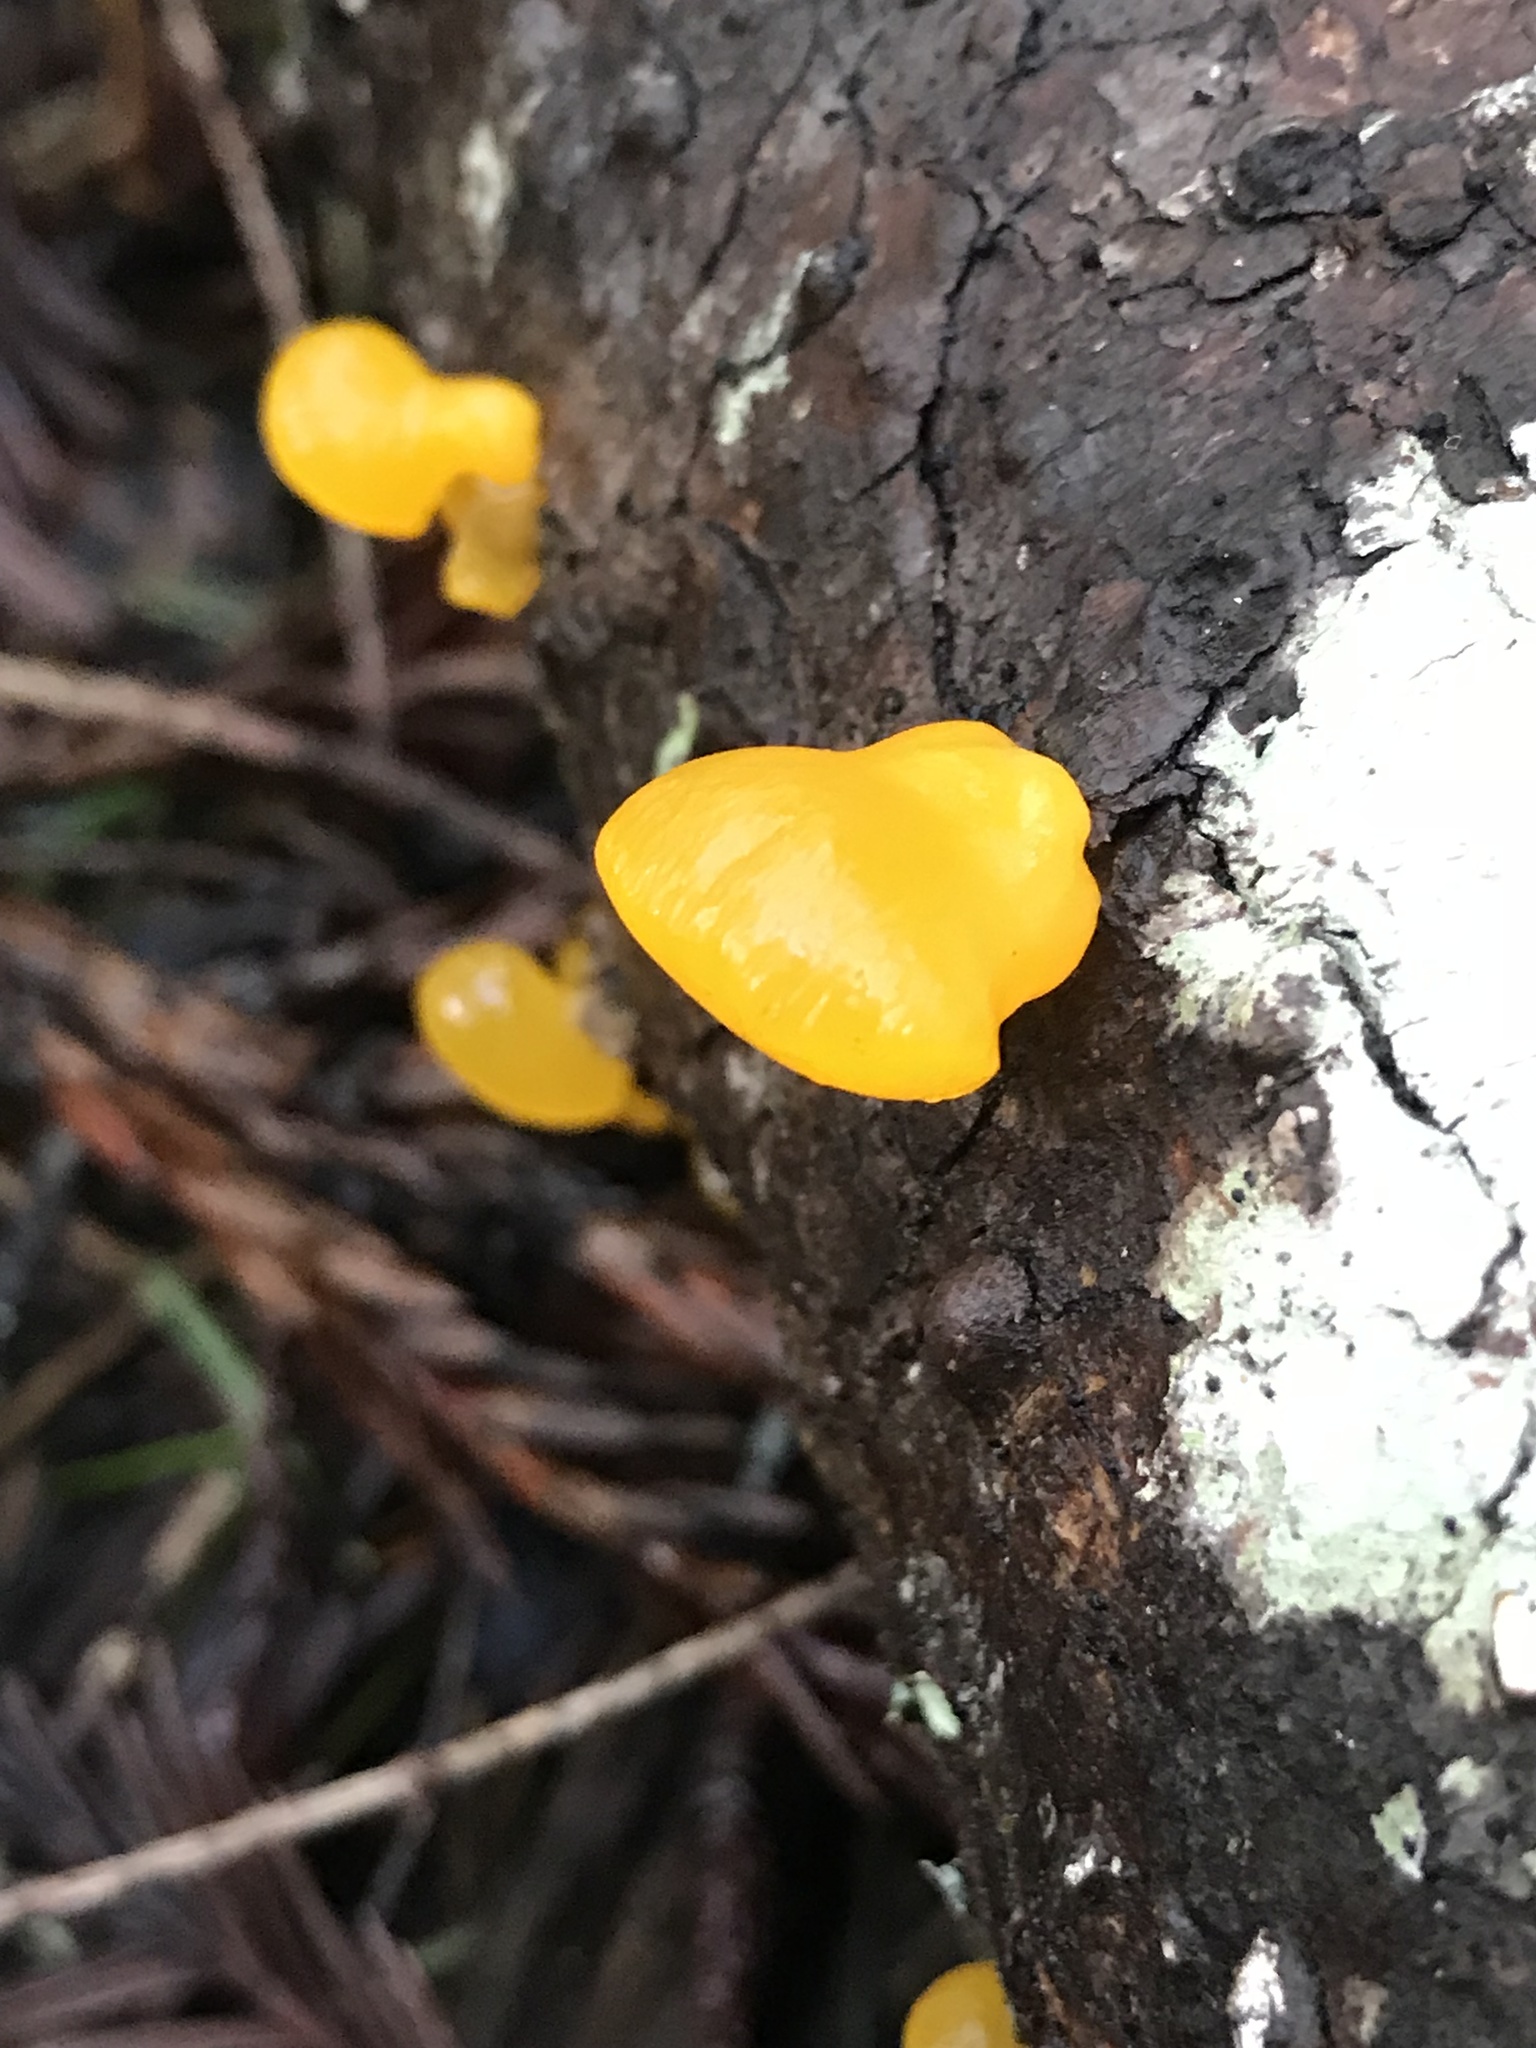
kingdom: Fungi
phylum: Basidiomycota
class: Dacrymycetes
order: Dacrymycetales
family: Dacrymycetaceae
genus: Dacrymyces
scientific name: Dacrymyces chrysospermus
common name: Orange jelly spot
